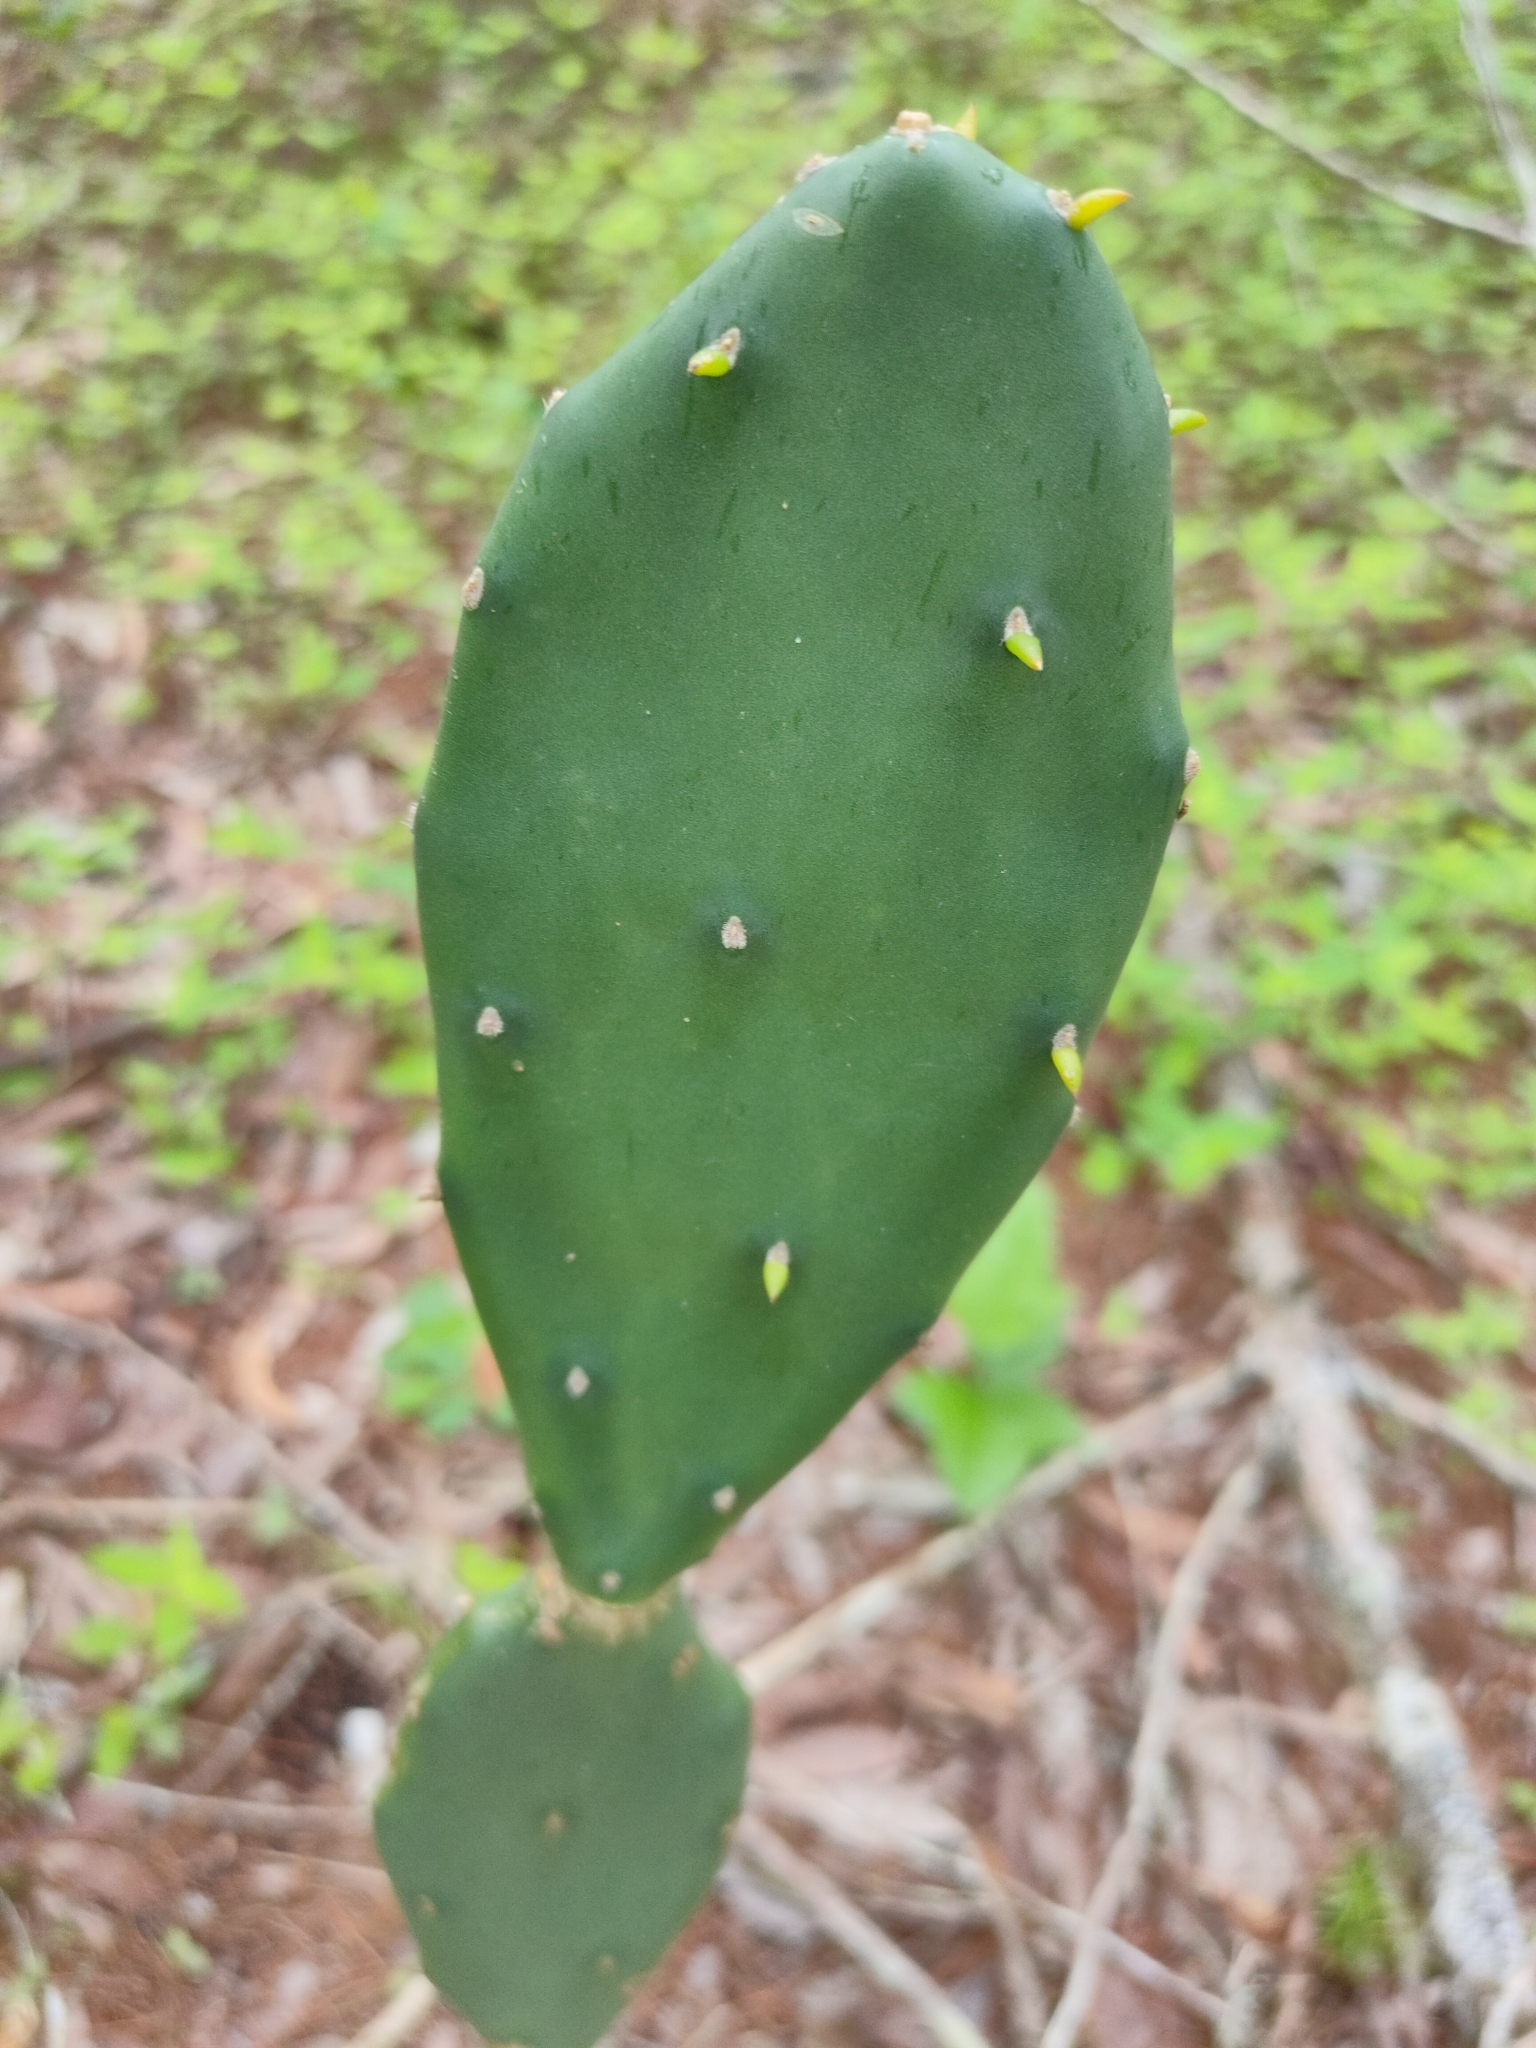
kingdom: Plantae
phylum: Tracheophyta
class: Magnoliopsida
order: Caryophyllales
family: Cactaceae
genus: Opuntia
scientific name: Opuntia stricta
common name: Erect pricklypear
